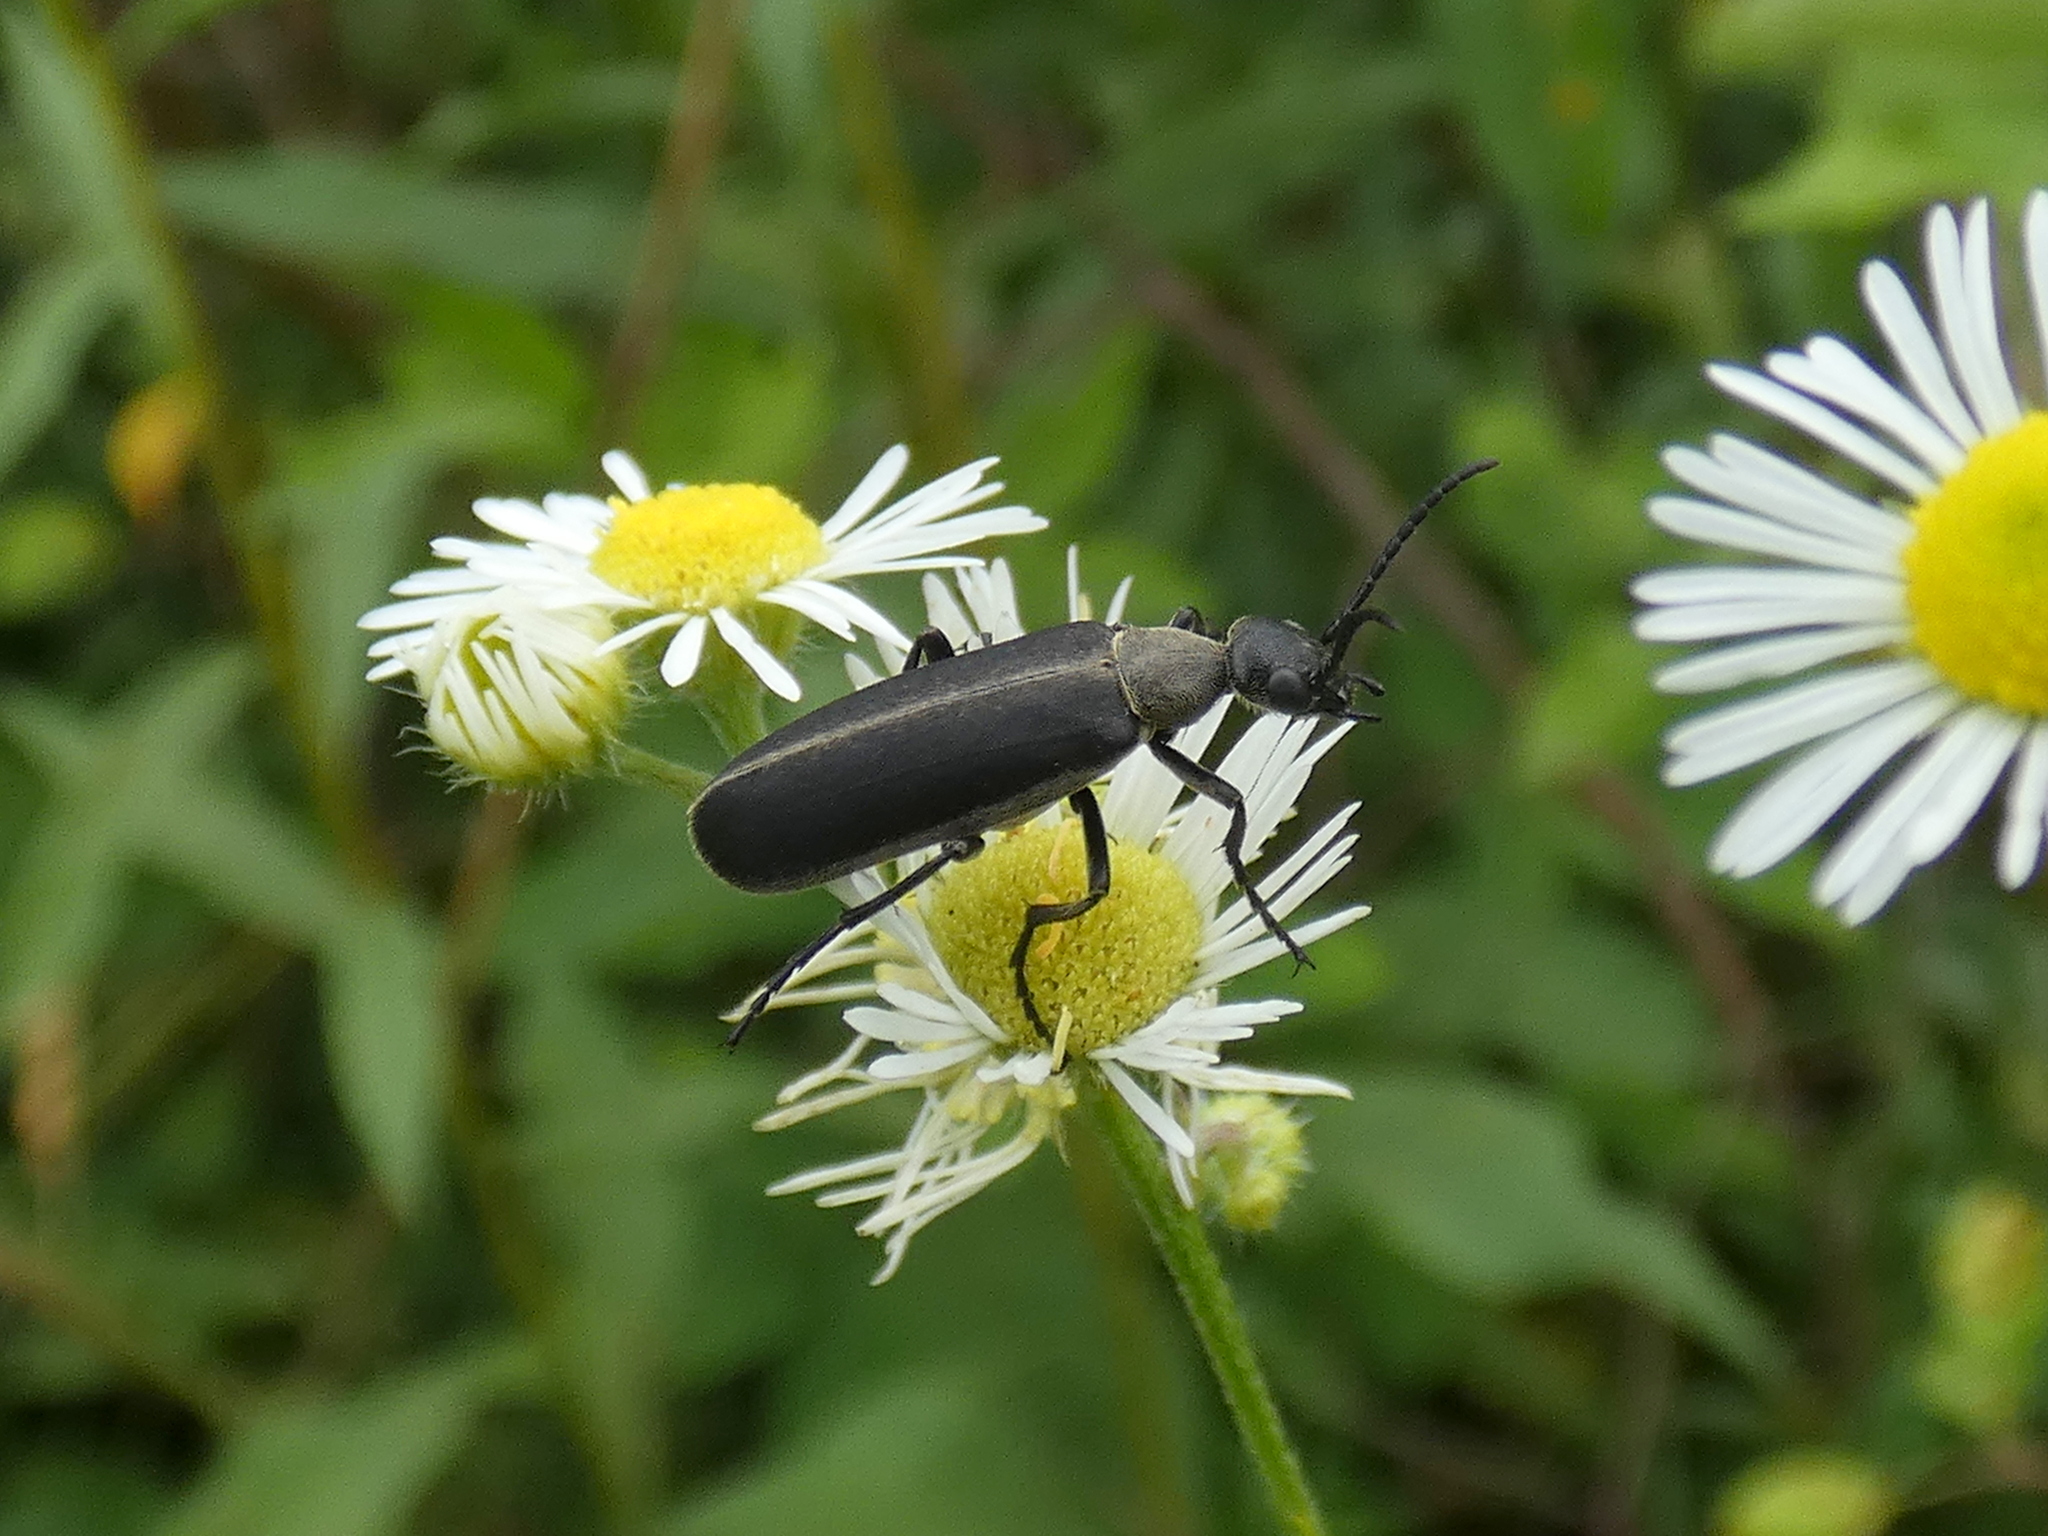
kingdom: Animalia
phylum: Arthropoda
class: Insecta
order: Coleoptera
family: Meloidae
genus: Epicauta
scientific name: Epicauta atrata
